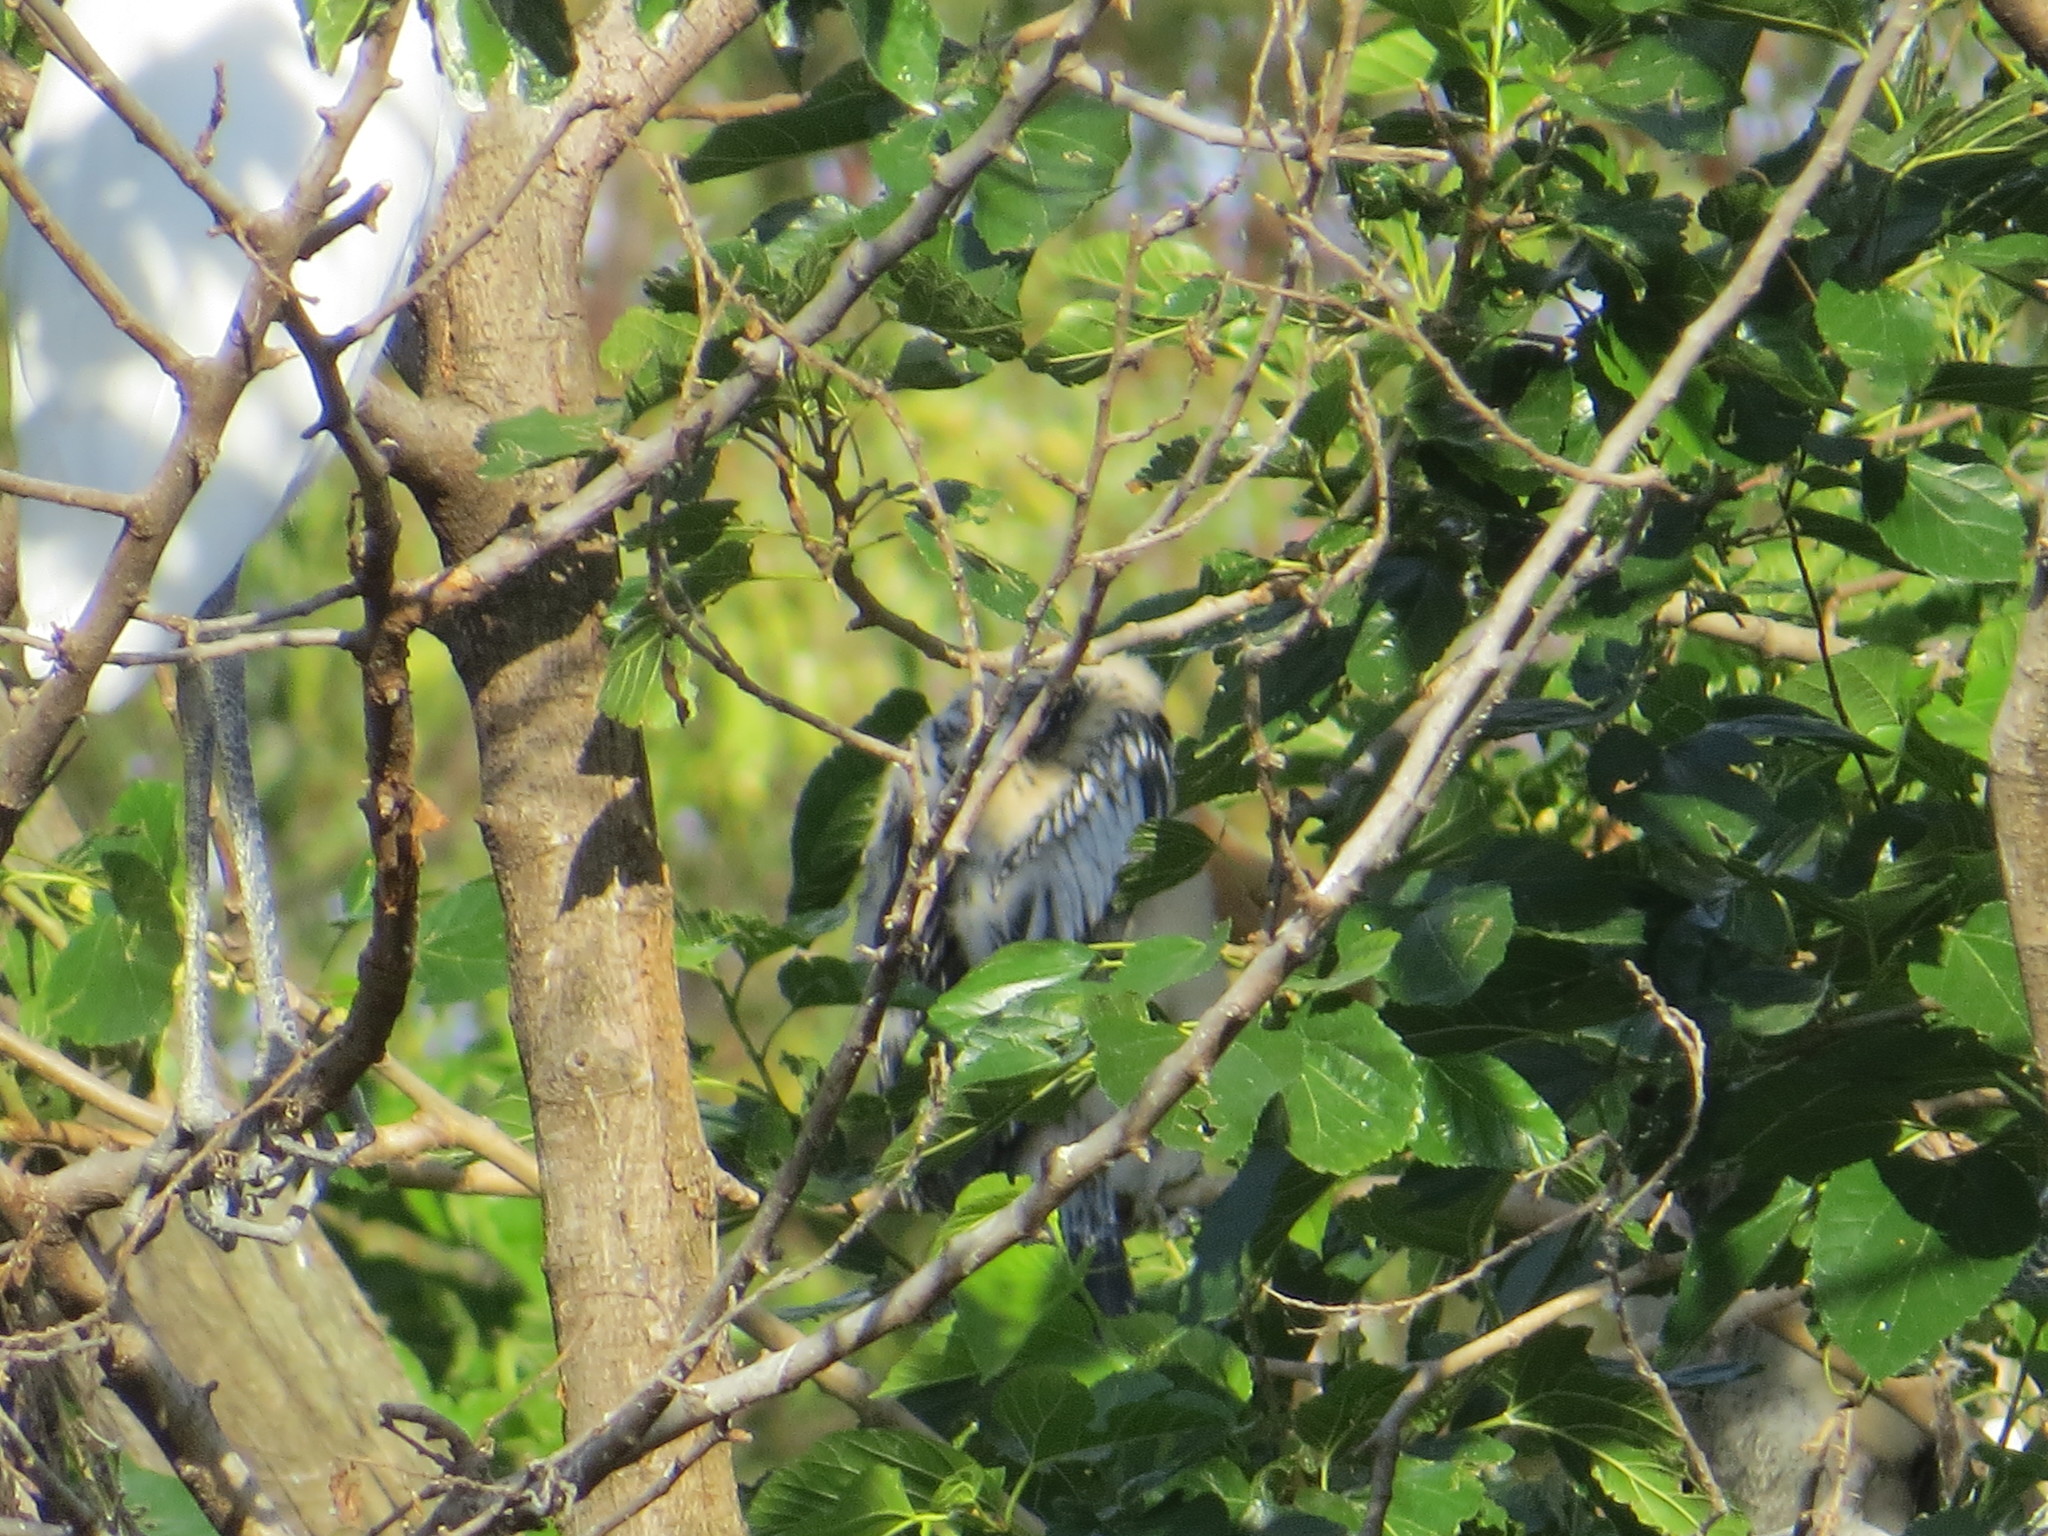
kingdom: Animalia
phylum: Chordata
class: Aves
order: Suliformes
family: Anhingidae
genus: Anhinga
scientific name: Anhinga anhinga
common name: Anhinga
